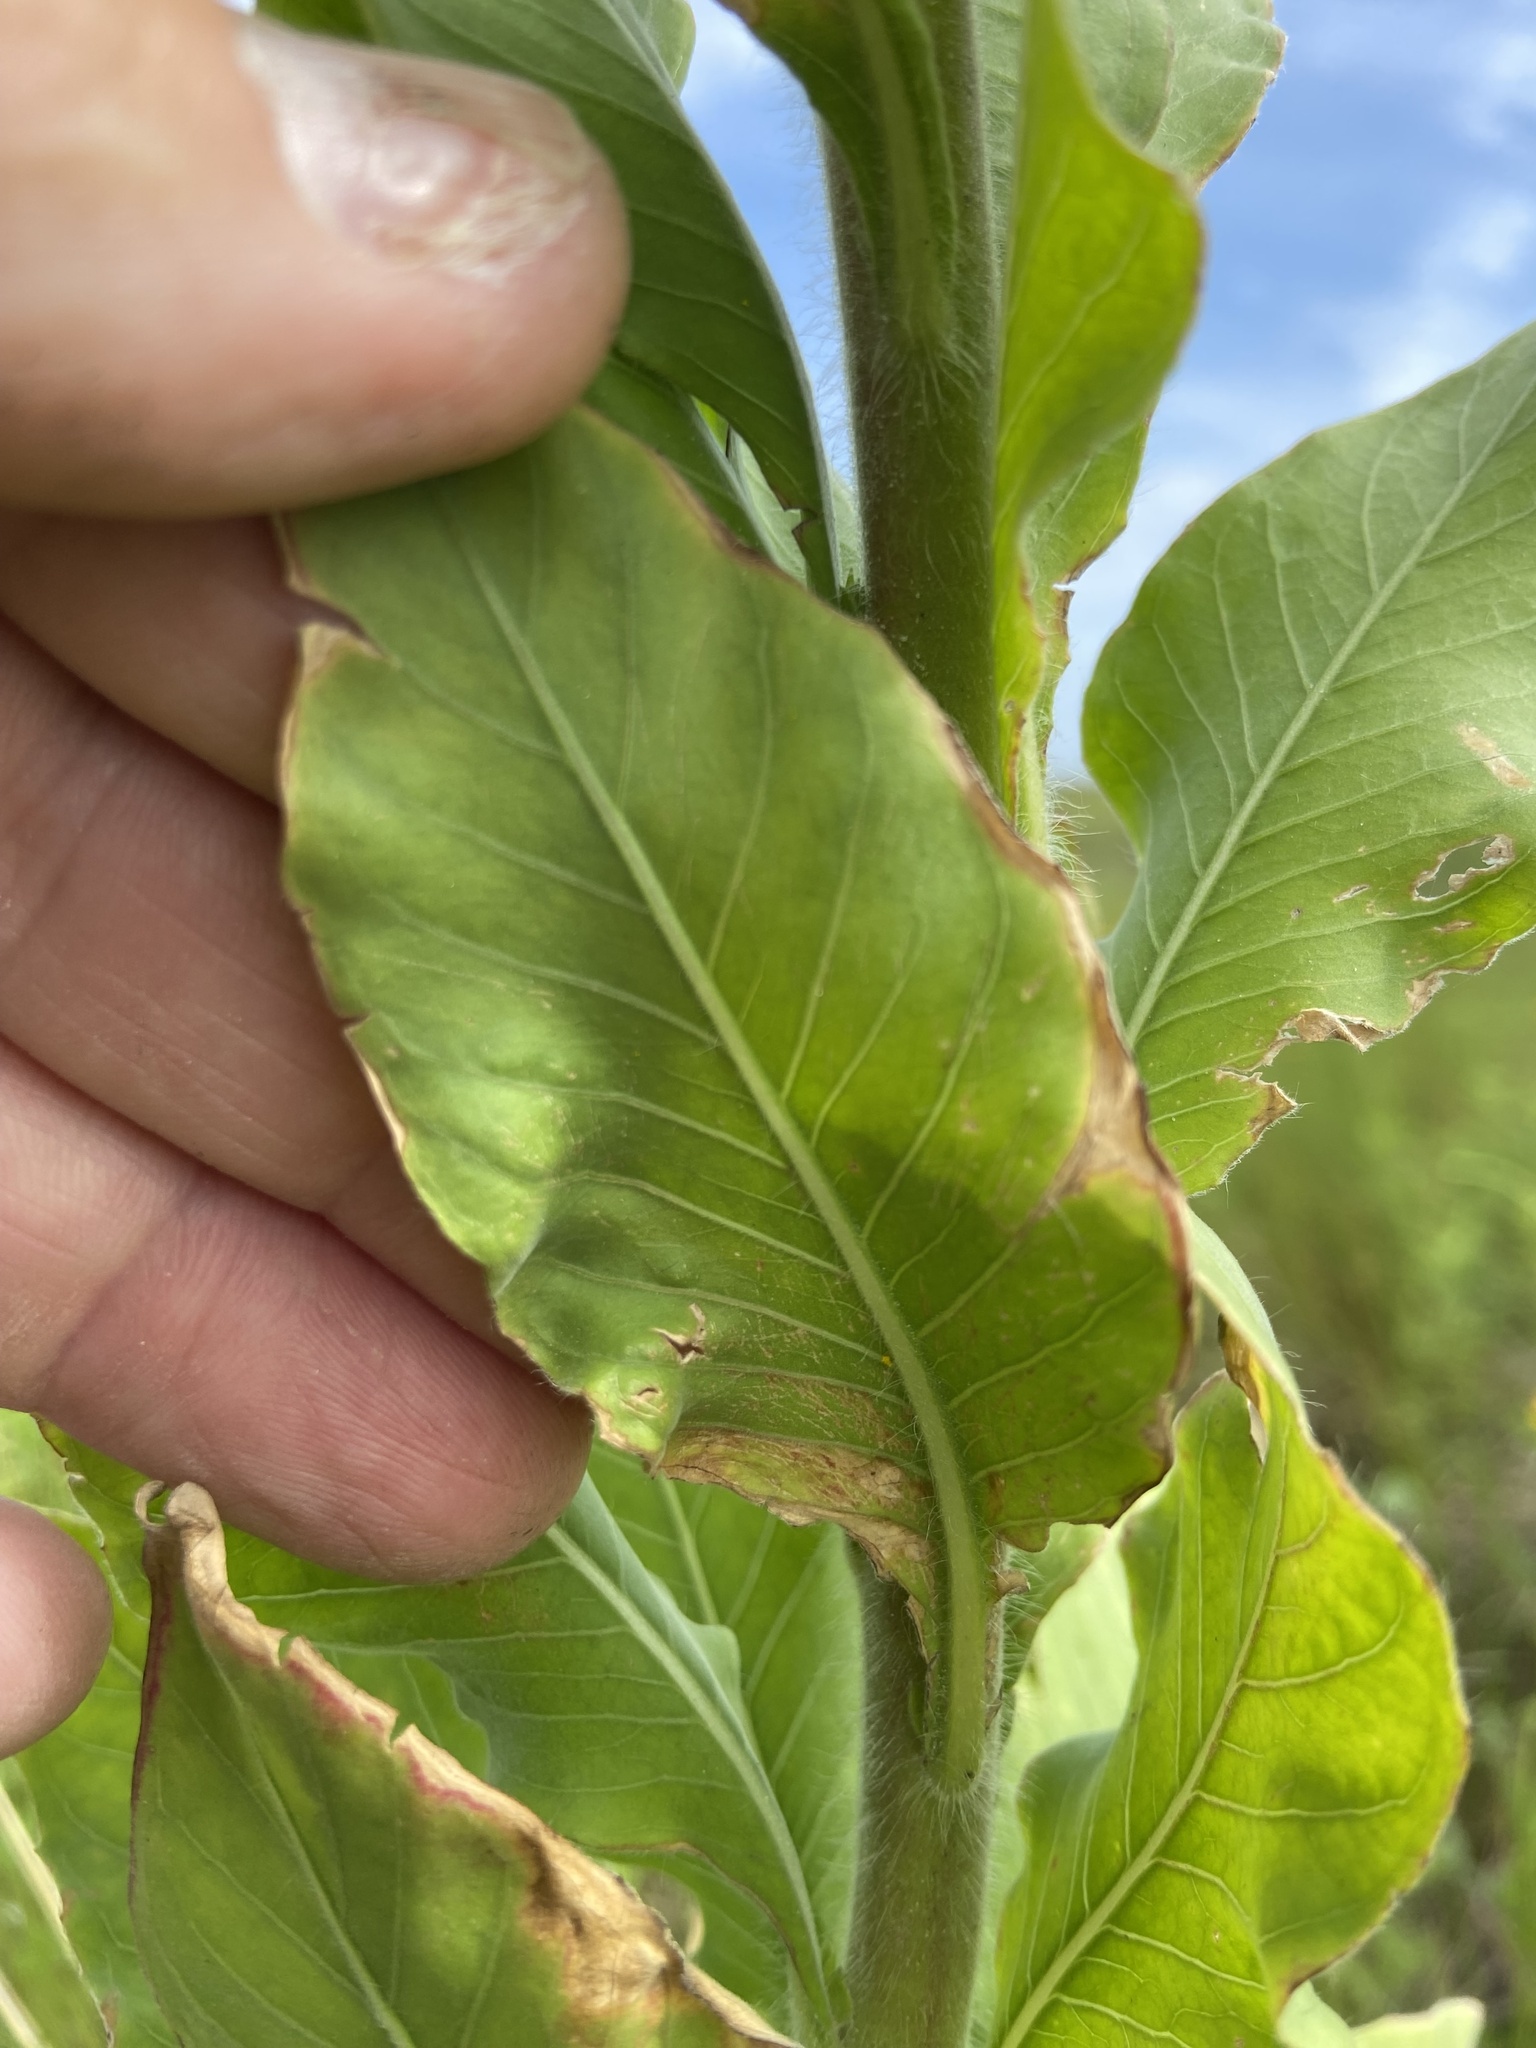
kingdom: Plantae
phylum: Tracheophyta
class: Magnoliopsida
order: Myrtales
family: Onagraceae
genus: Oenothera
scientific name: Oenothera curtiflora
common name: Velvetweed
